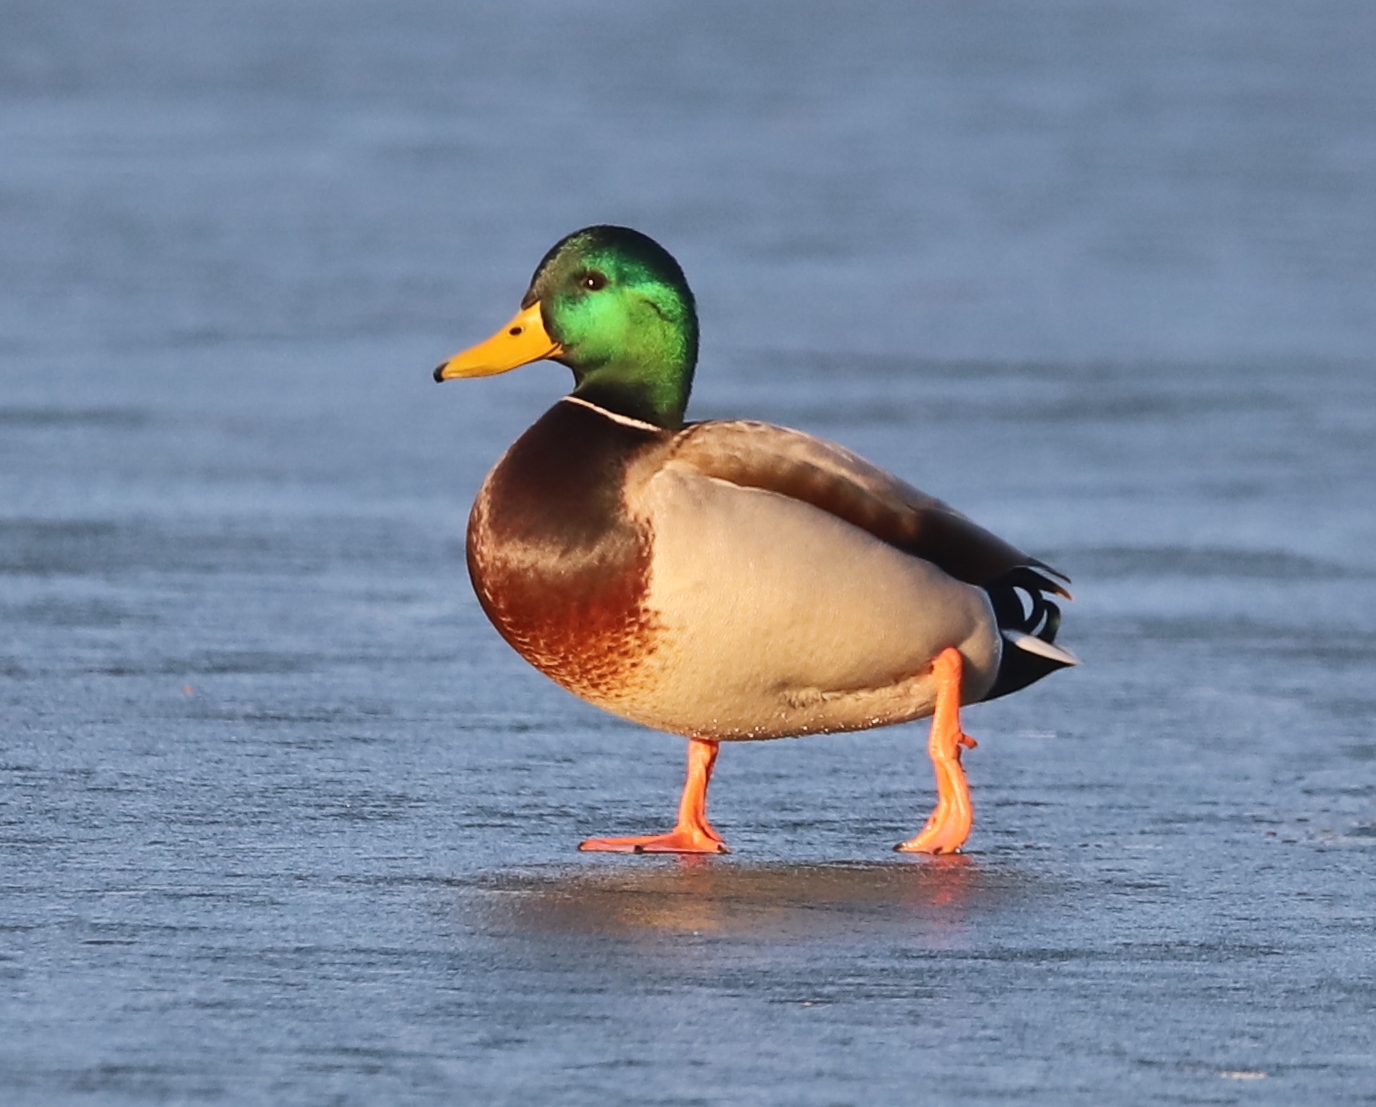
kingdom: Animalia
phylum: Chordata
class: Aves
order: Anseriformes
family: Anatidae
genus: Anas
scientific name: Anas platyrhynchos
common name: Mallard
